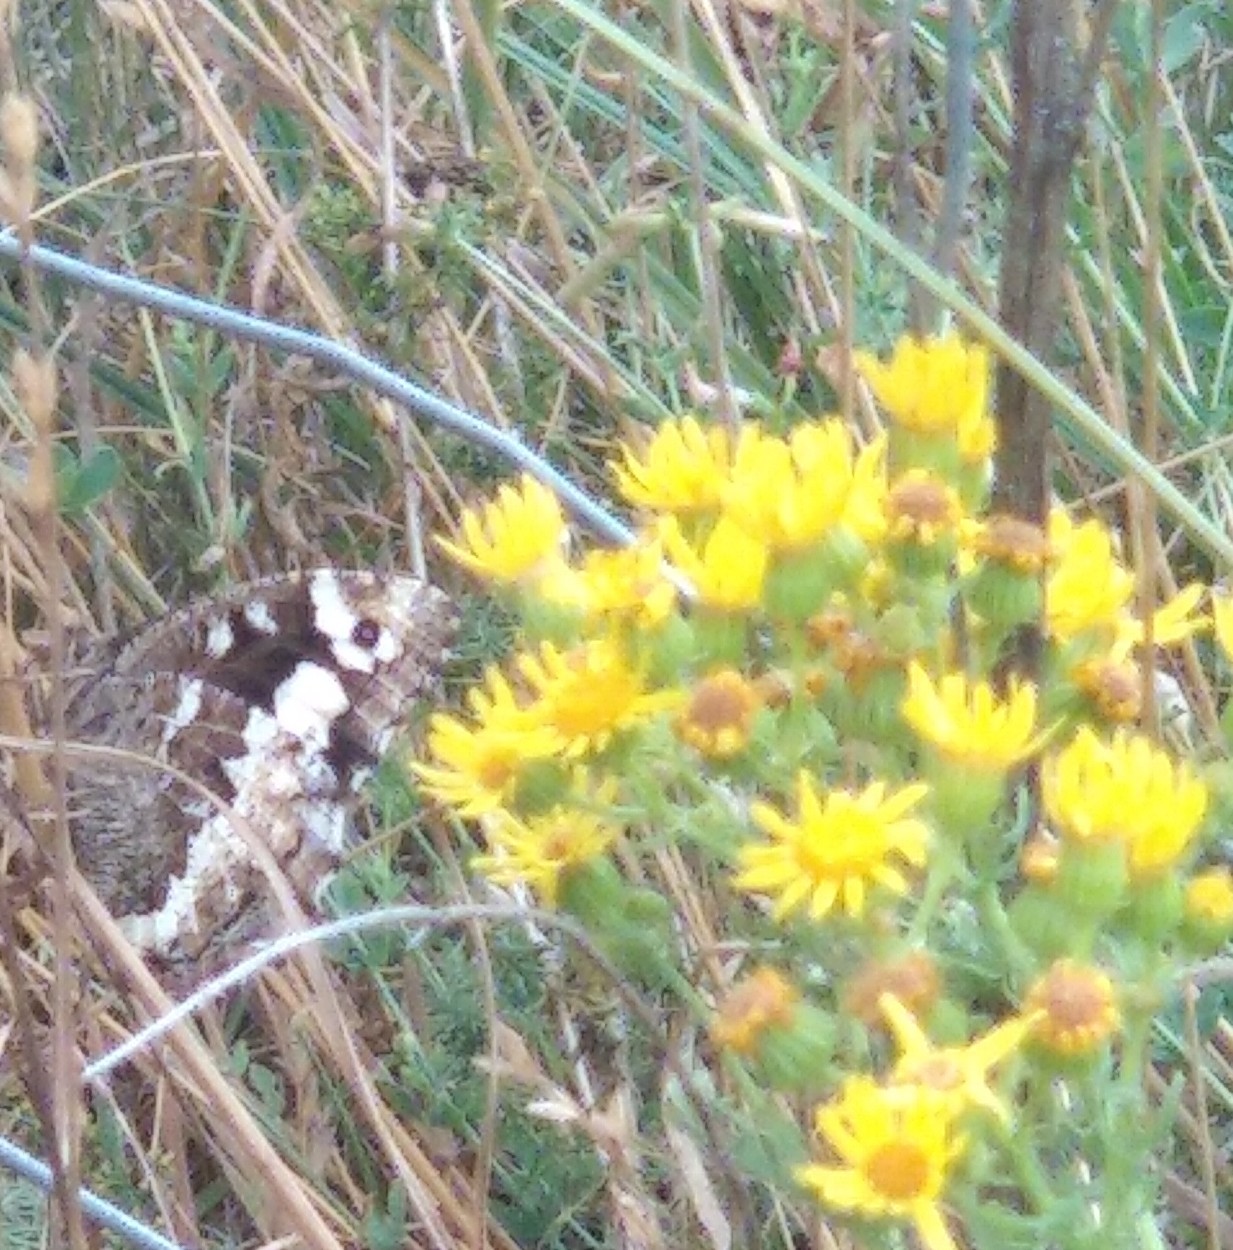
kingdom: Animalia
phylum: Arthropoda
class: Insecta
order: Lepidoptera
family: Lycaenidae
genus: Loweia
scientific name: Loweia tityrus
